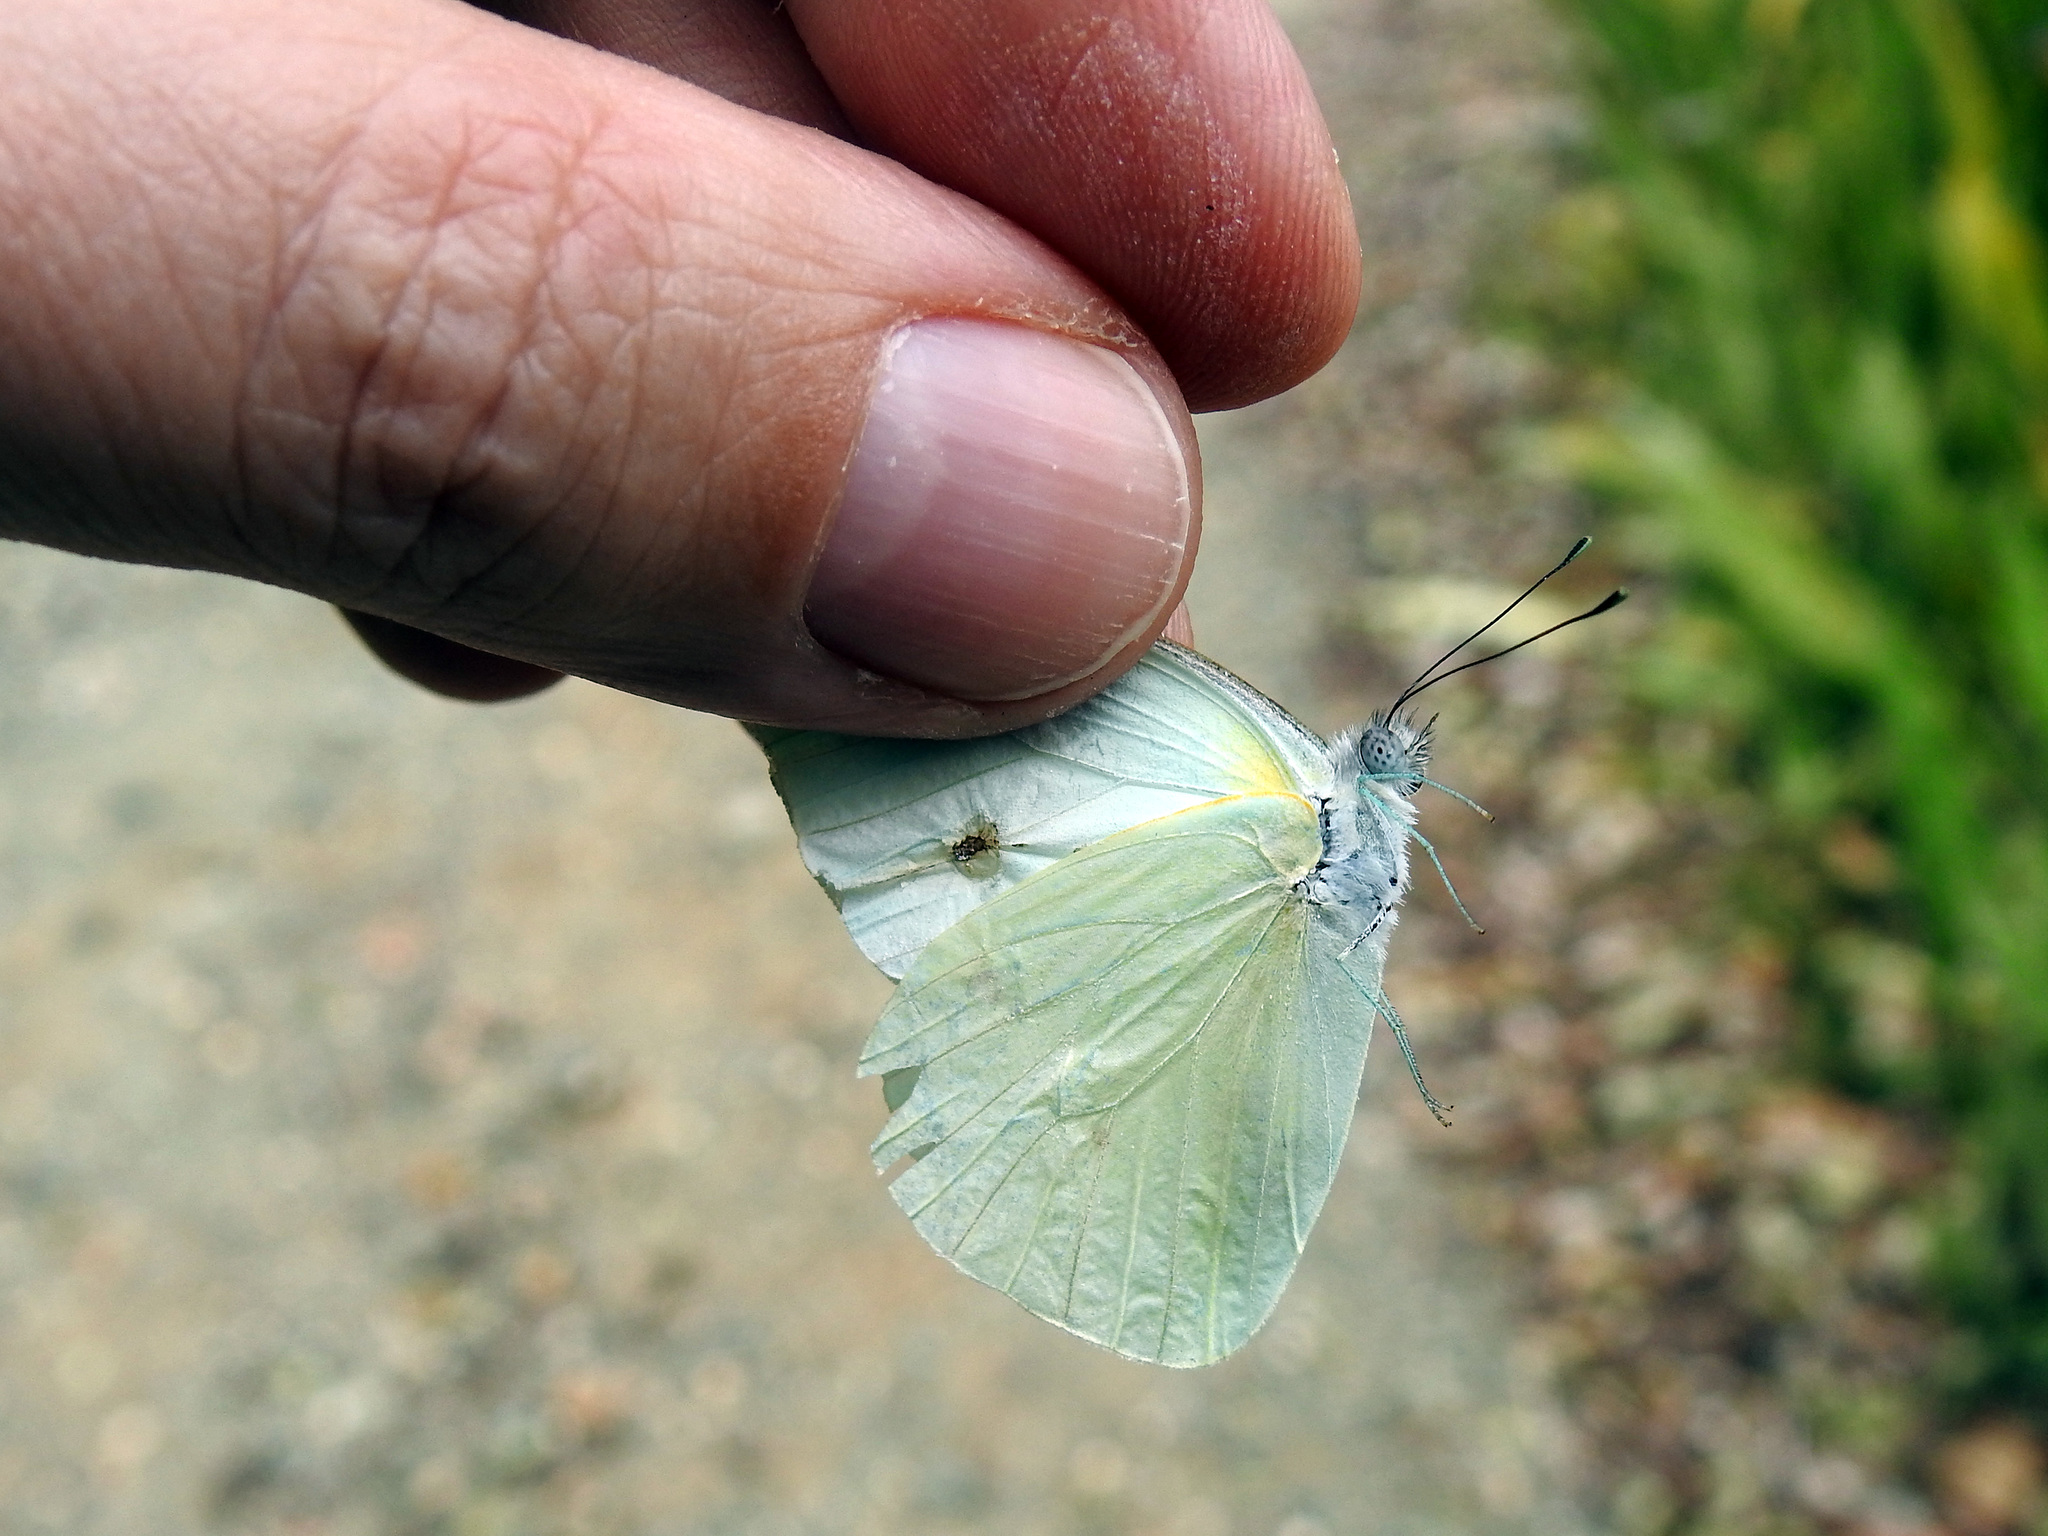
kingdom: Animalia
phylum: Arthropoda
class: Insecta
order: Lepidoptera
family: Pieridae
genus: Glutophrissa
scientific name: Glutophrissa drusilla
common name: Florida white
